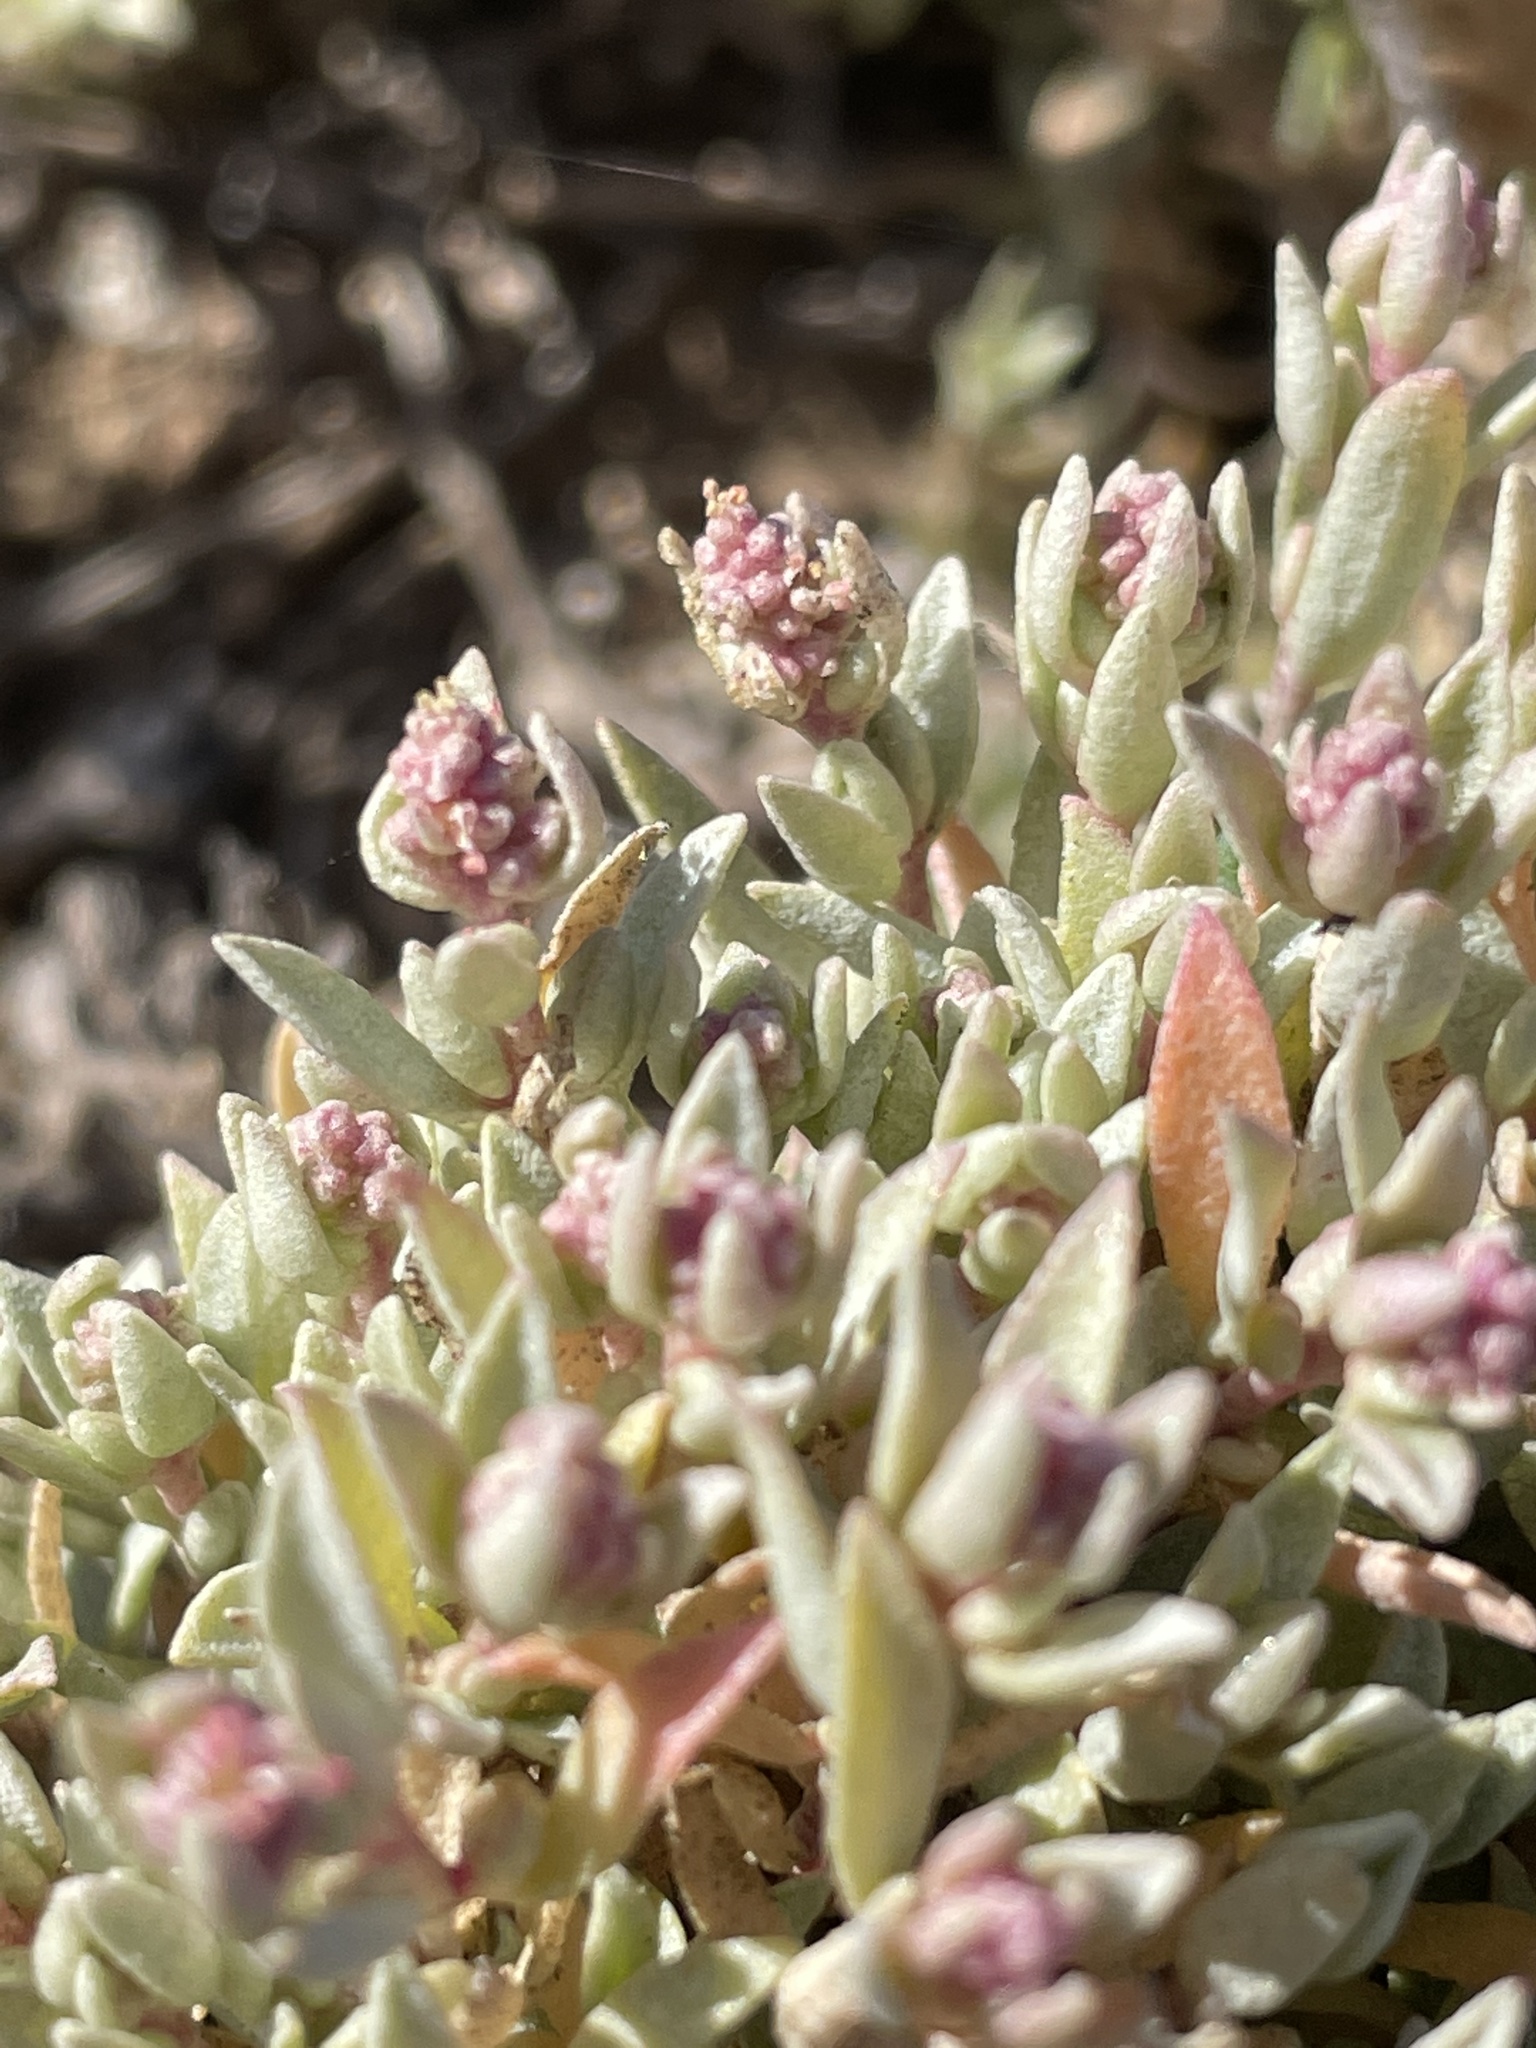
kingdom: Plantae
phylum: Tracheophyta
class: Magnoliopsida
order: Caryophyllales
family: Amaranthaceae
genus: Atriplex
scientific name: Atriplex watsonii
